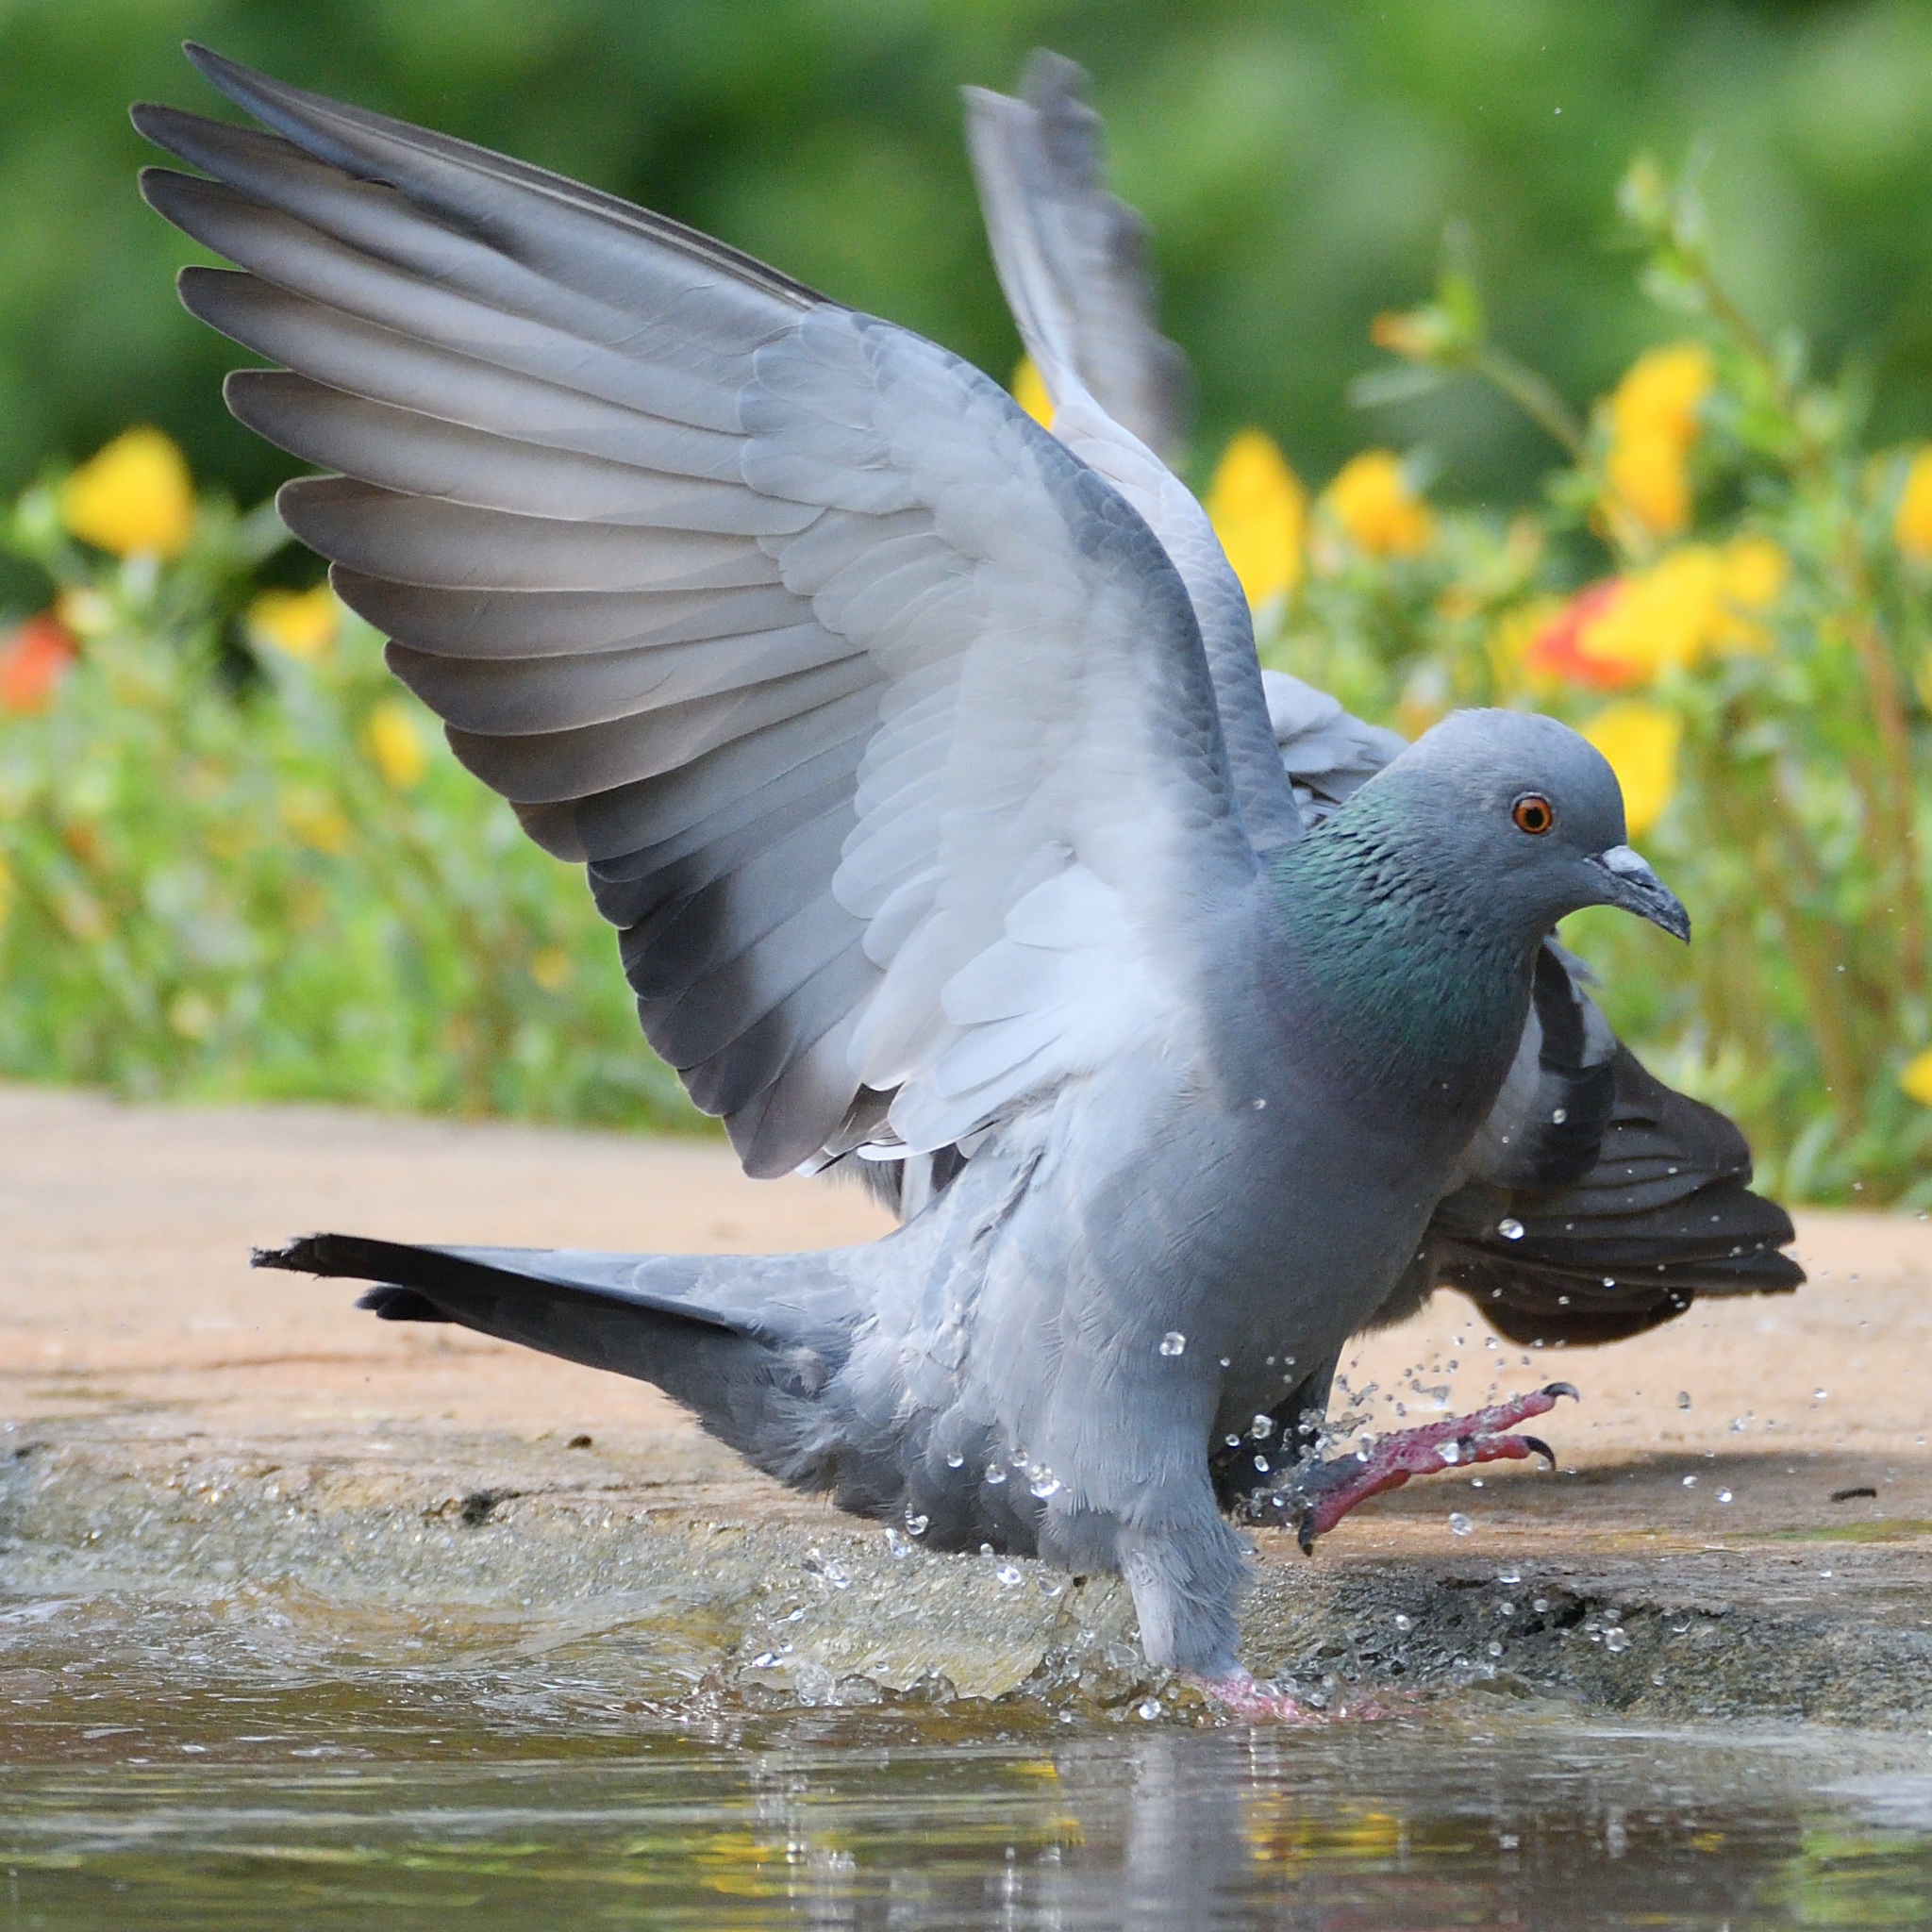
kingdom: Animalia
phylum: Chordata
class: Aves
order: Columbiformes
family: Columbidae
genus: Columba
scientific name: Columba livia
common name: Rock pigeon
